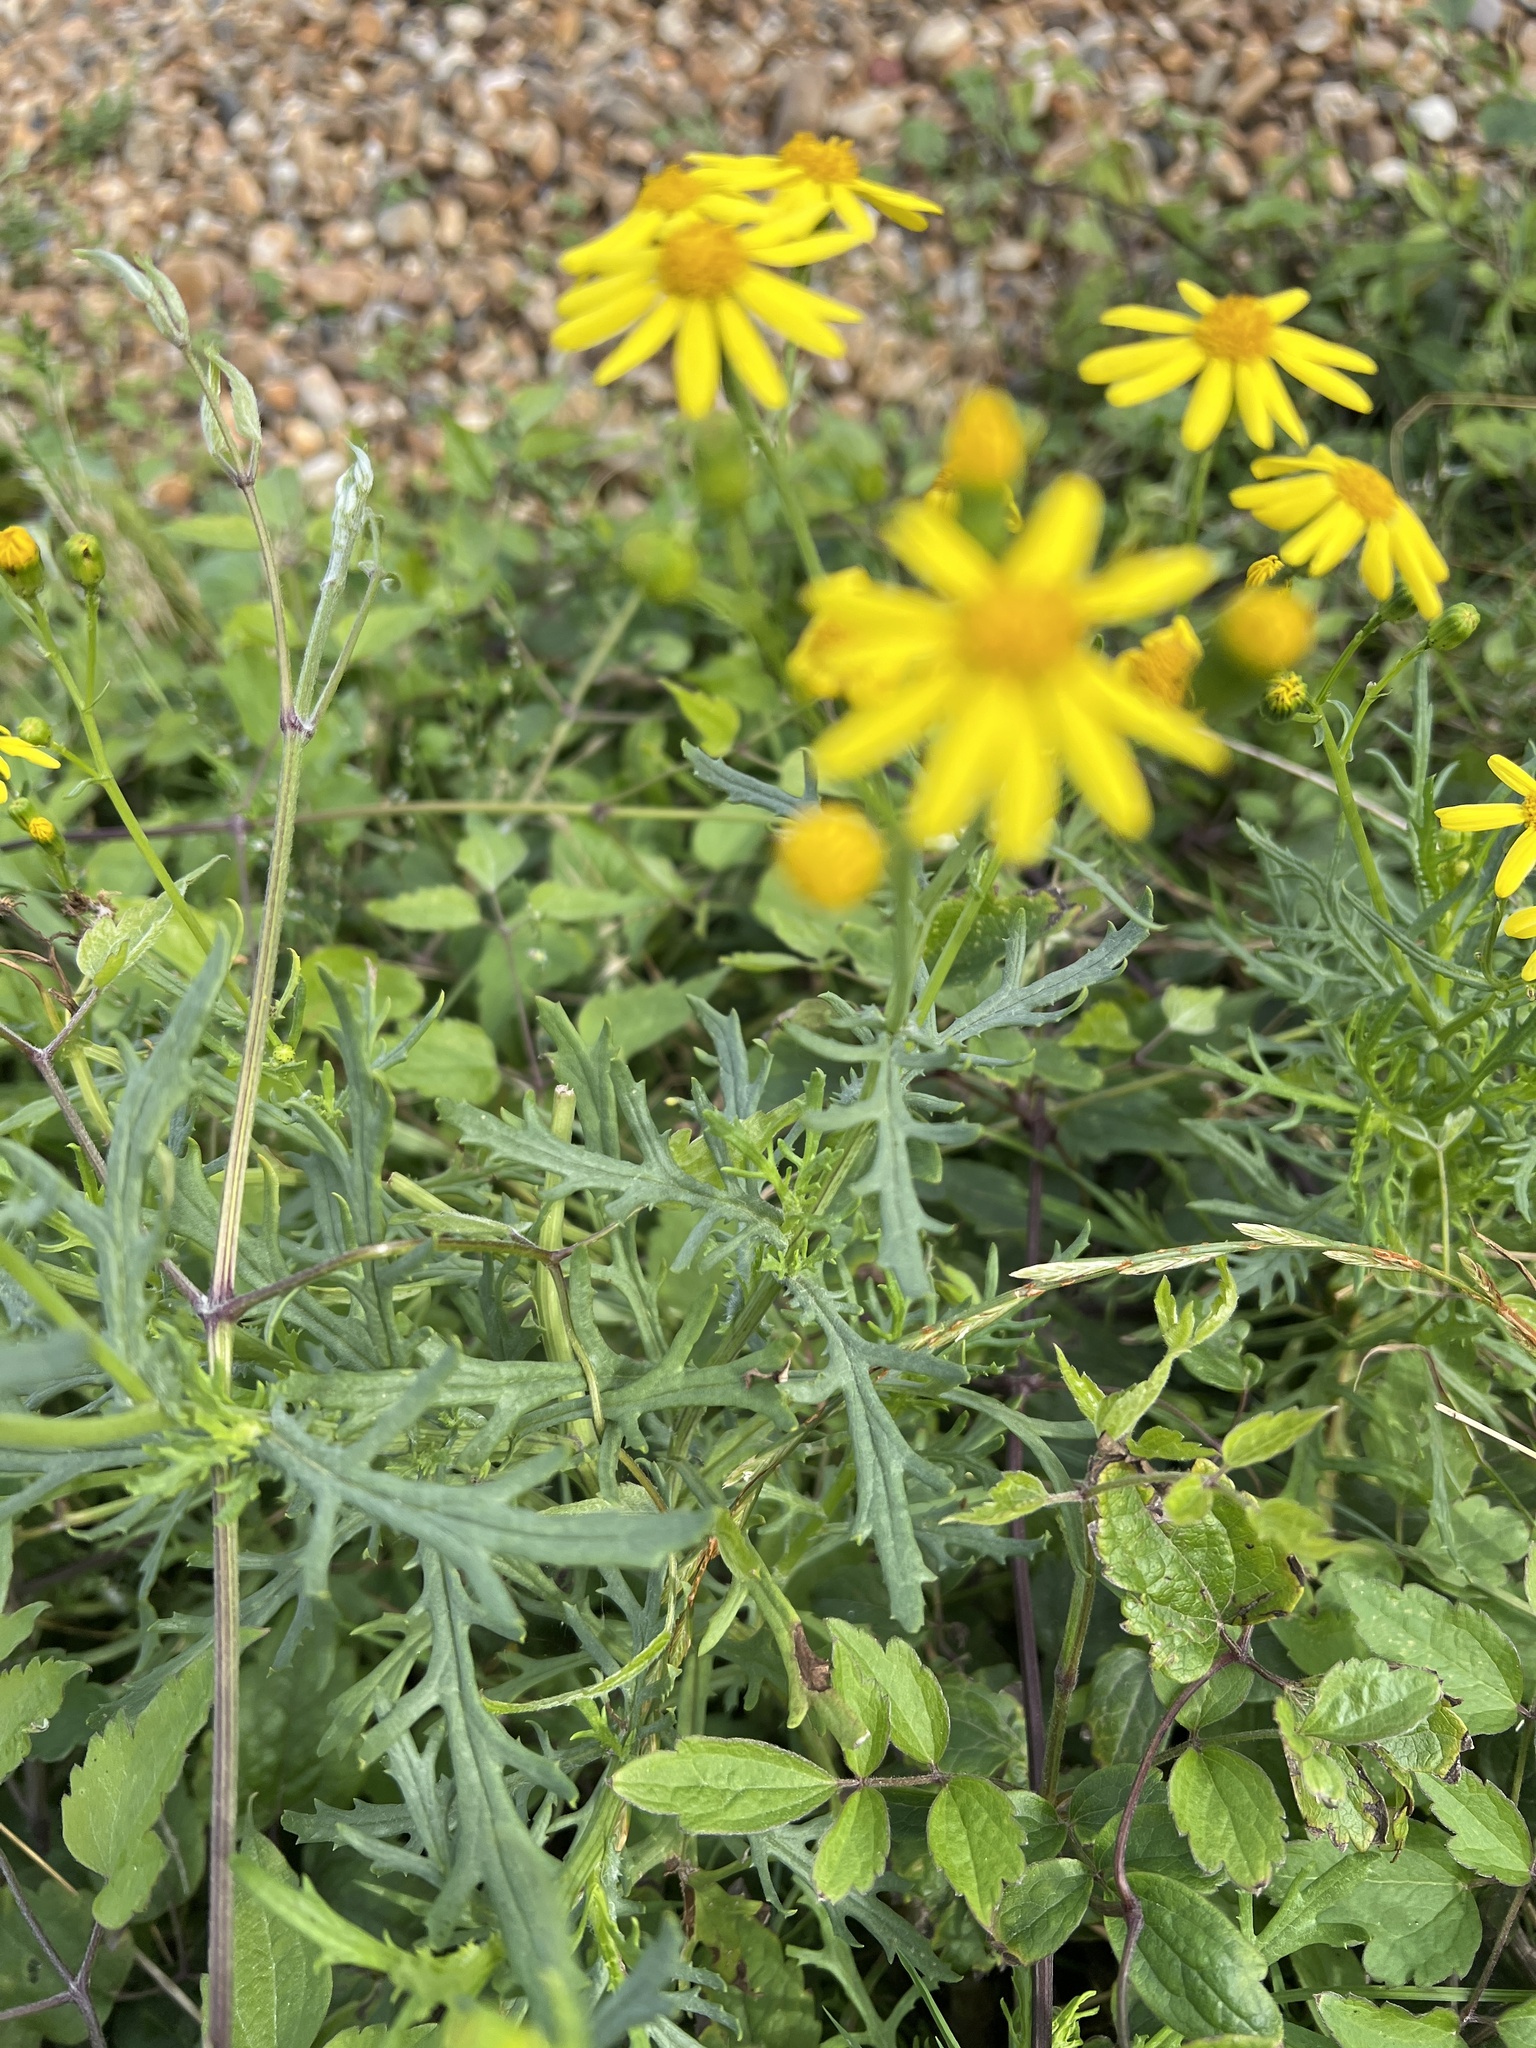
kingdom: Plantae
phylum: Tracheophyta
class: Magnoliopsida
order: Asterales
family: Asteraceae
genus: Senecio
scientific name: Senecio squalidus
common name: Oxford ragwort
